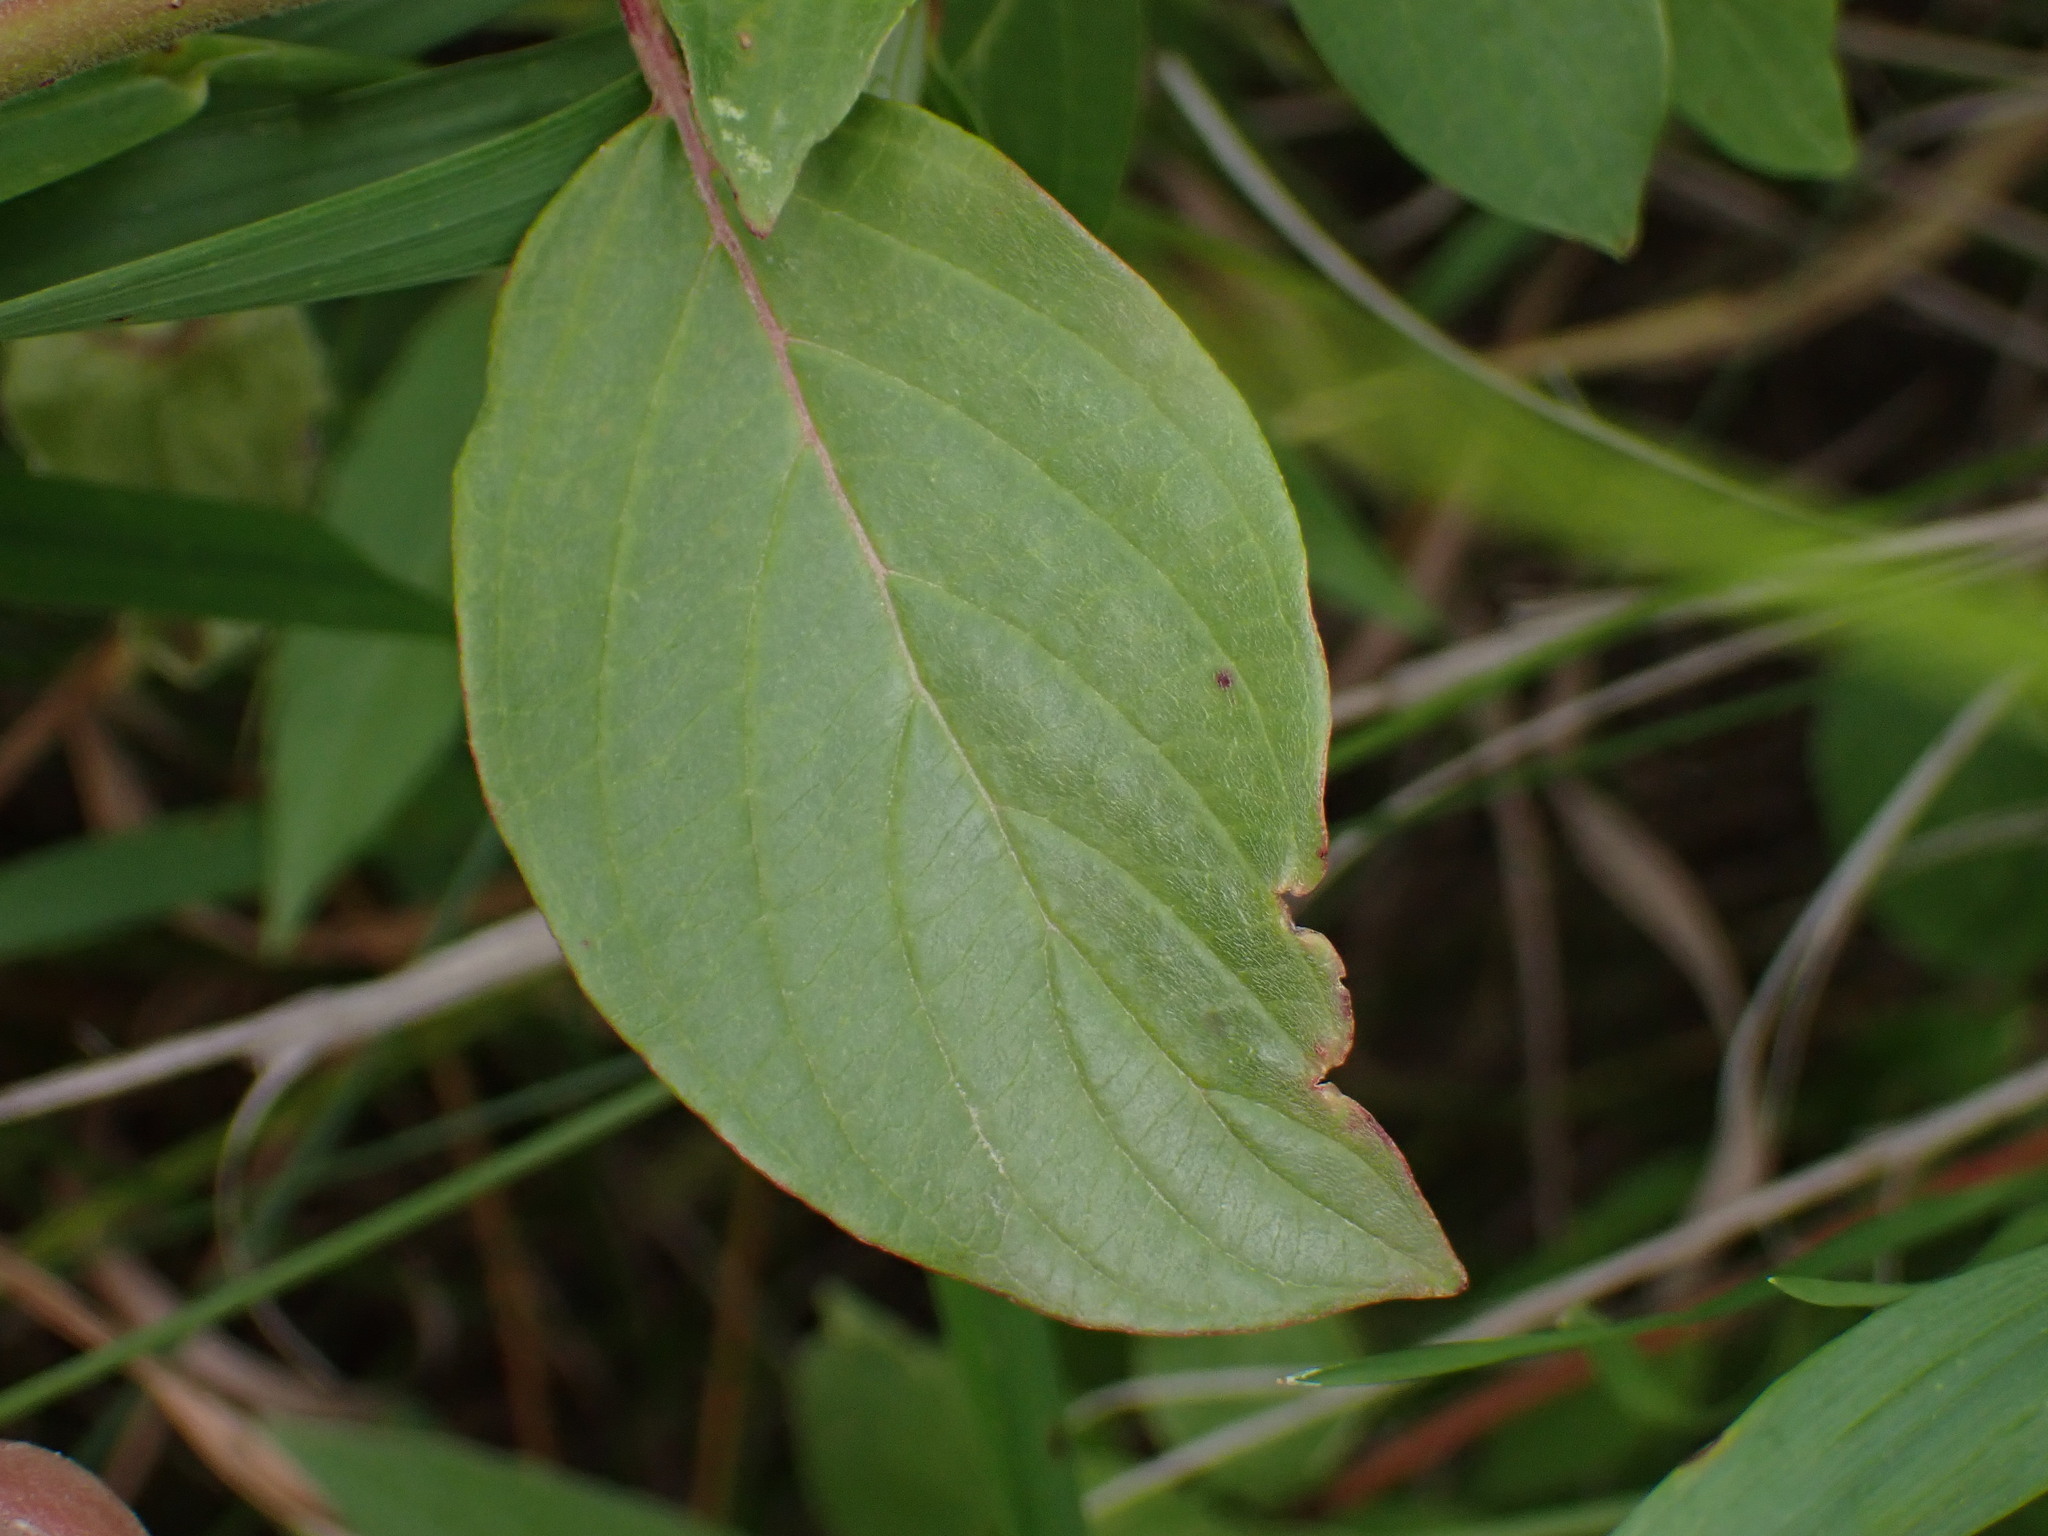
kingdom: Plantae
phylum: Tracheophyta
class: Magnoliopsida
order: Cornales
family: Cornaceae
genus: Cornus
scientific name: Cornus sericea
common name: Red-osier dogwood
